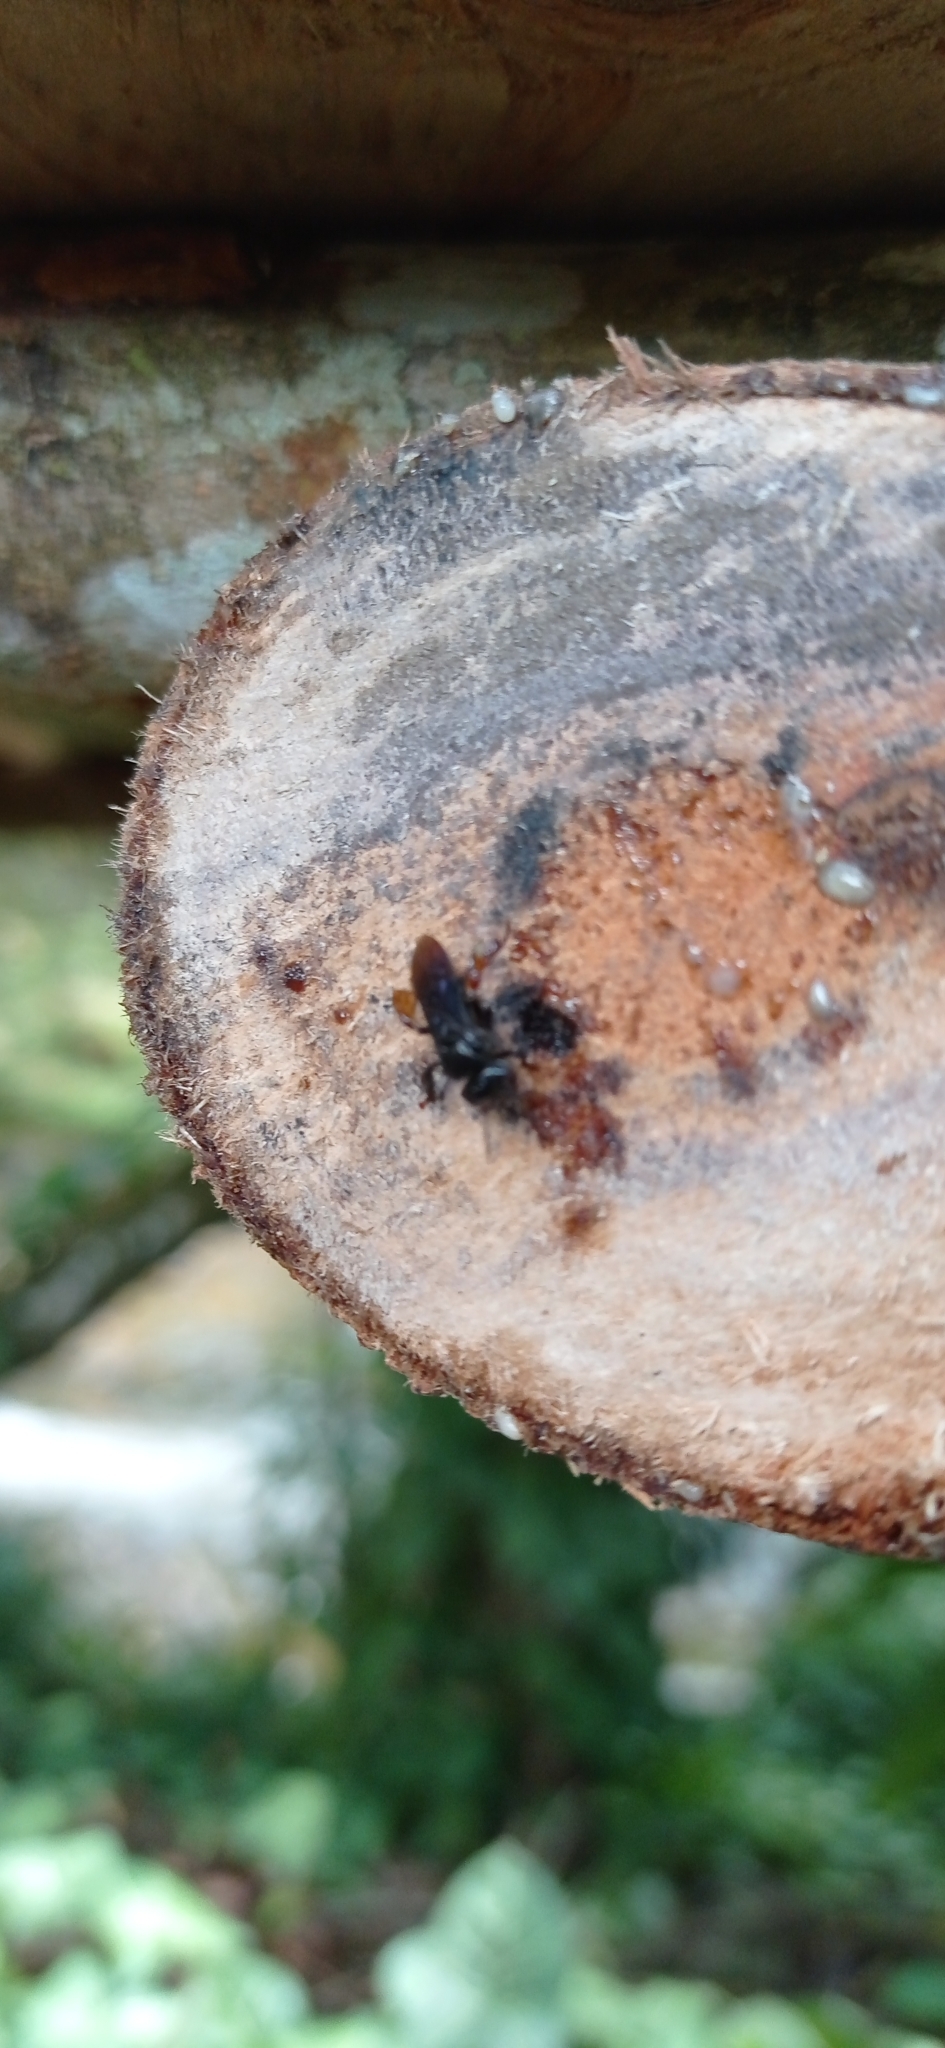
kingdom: Animalia
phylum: Arthropoda
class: Insecta
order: Hymenoptera
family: Apidae
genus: Trigona
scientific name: Trigona spinipes
